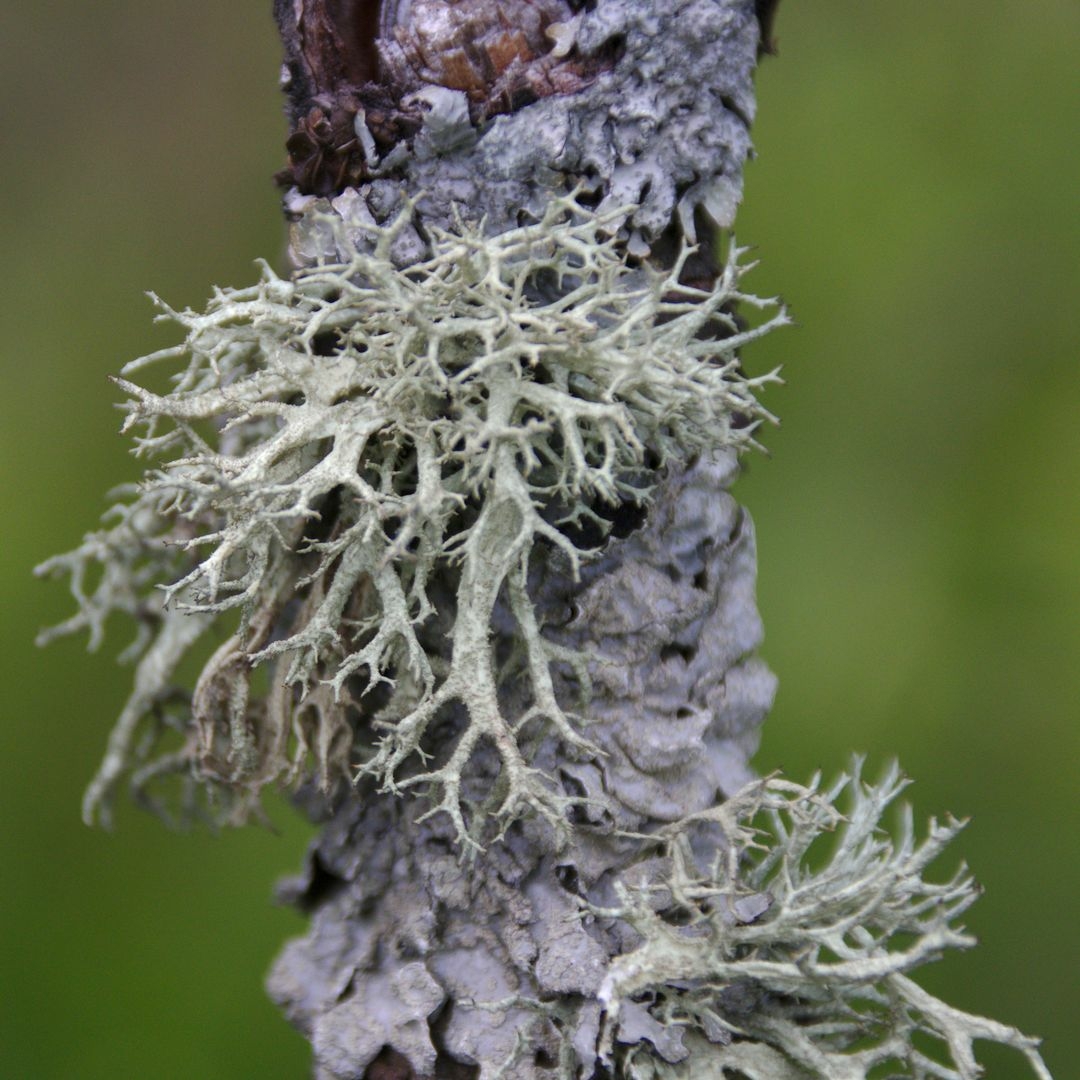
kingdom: Fungi
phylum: Ascomycota
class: Lecanoromycetes
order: Lecanorales
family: Parmeliaceae
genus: Evernia
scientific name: Evernia mesomorpha
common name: Boreal oak moss lichen
